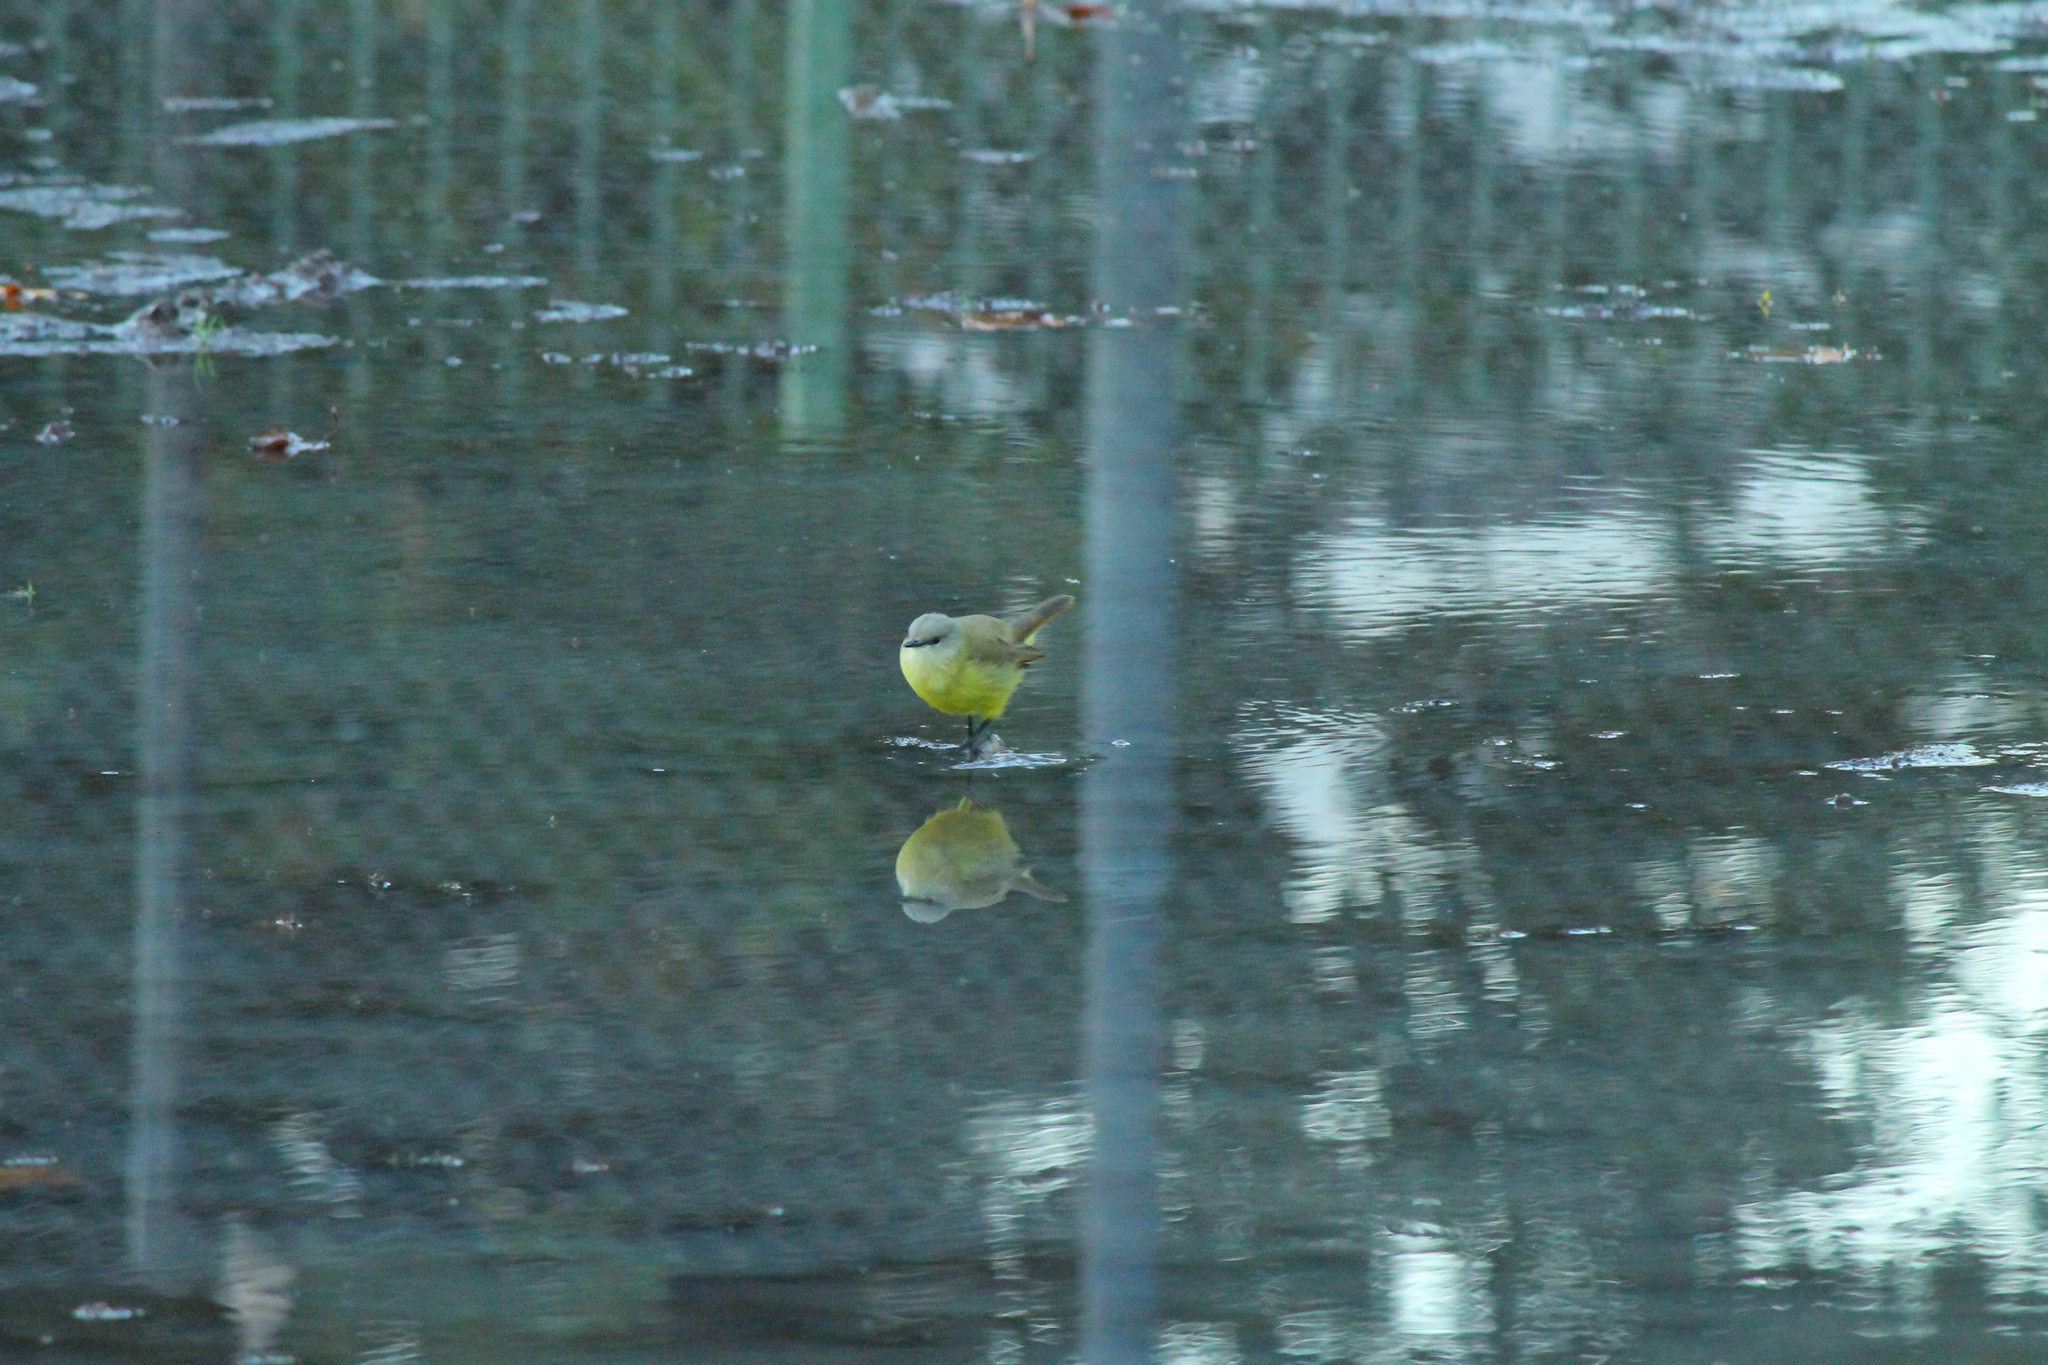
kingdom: Animalia
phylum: Chordata
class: Aves
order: Passeriformes
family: Tyrannidae
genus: Machetornis
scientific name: Machetornis rixosa
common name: Cattle tyrant
